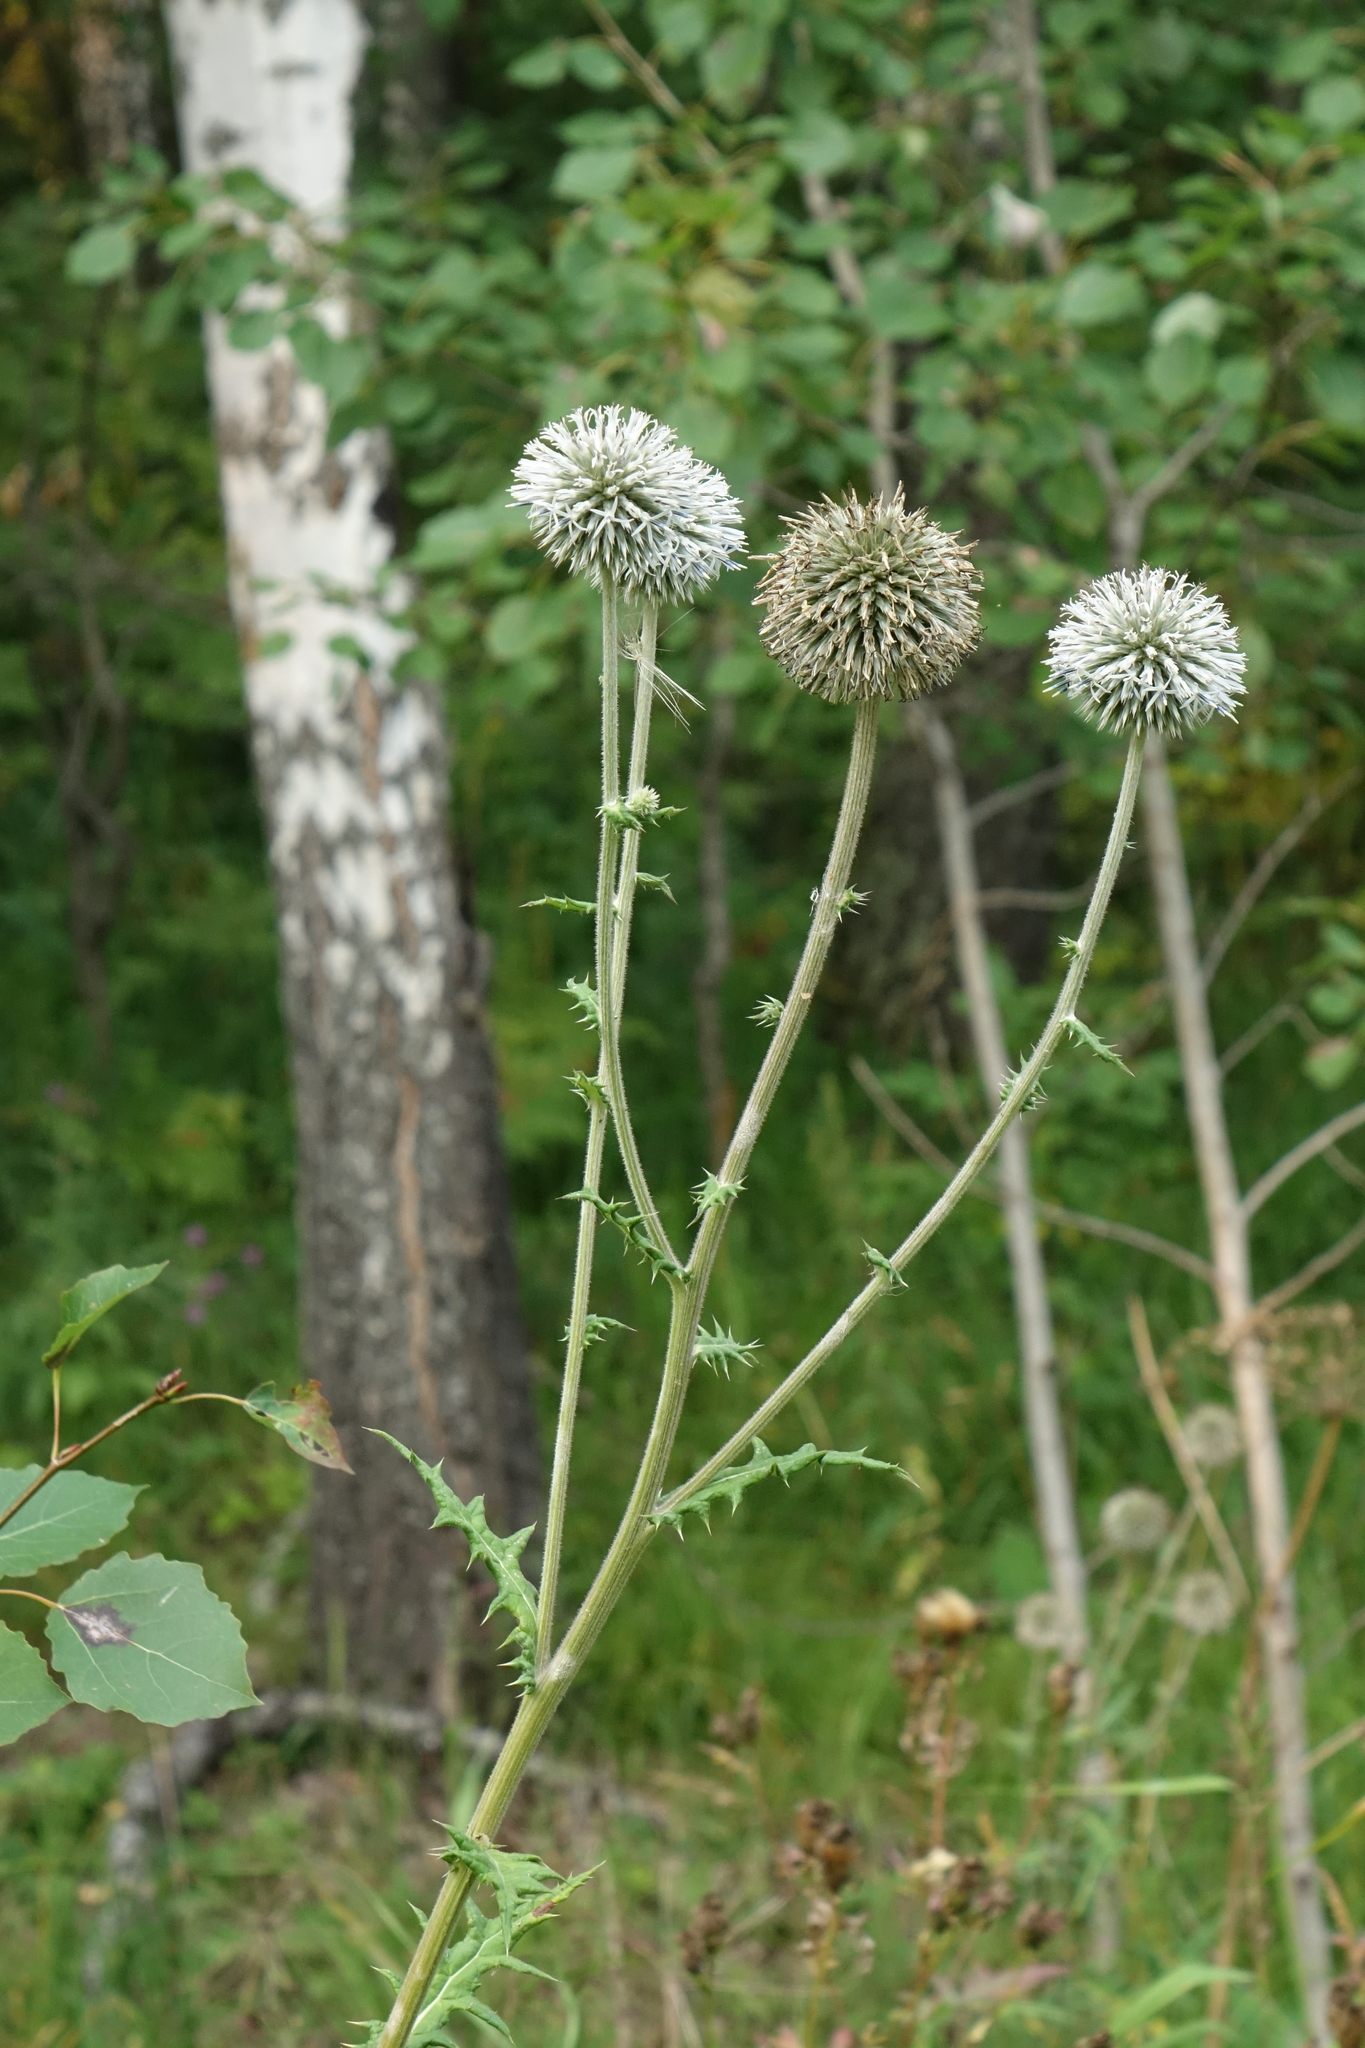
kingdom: Plantae
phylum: Tracheophyta
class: Magnoliopsida
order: Asterales
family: Asteraceae
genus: Echinops
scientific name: Echinops sphaerocephalus
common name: Glandular globe-thistle
